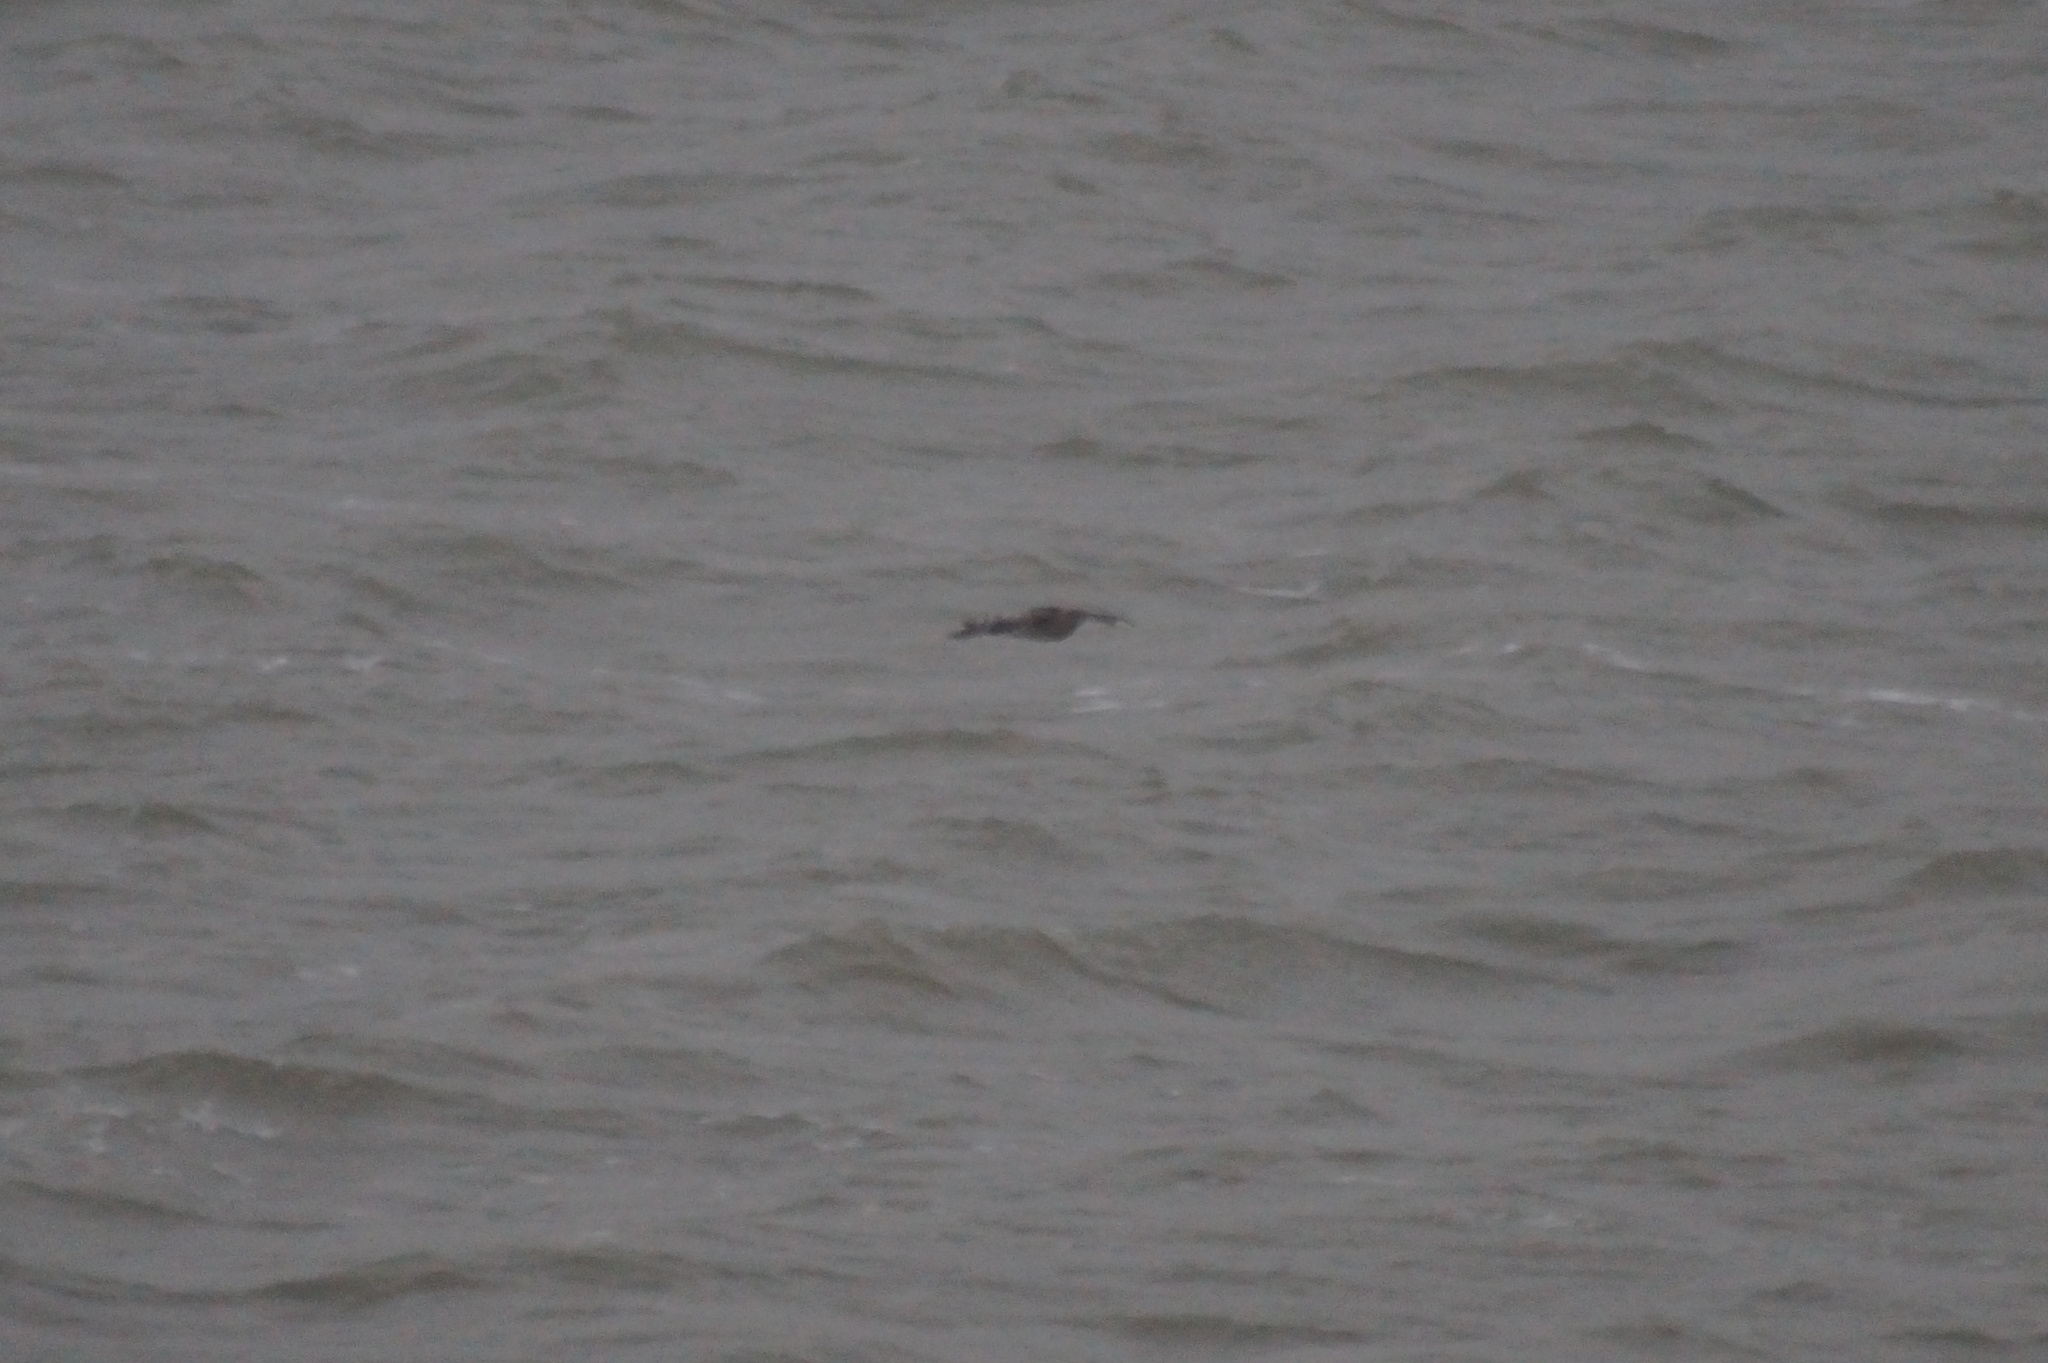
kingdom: Animalia
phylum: Chordata
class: Aves
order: Charadriiformes
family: Scolopacidae
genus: Numenius
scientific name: Numenius arquata
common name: Eurasian curlew
